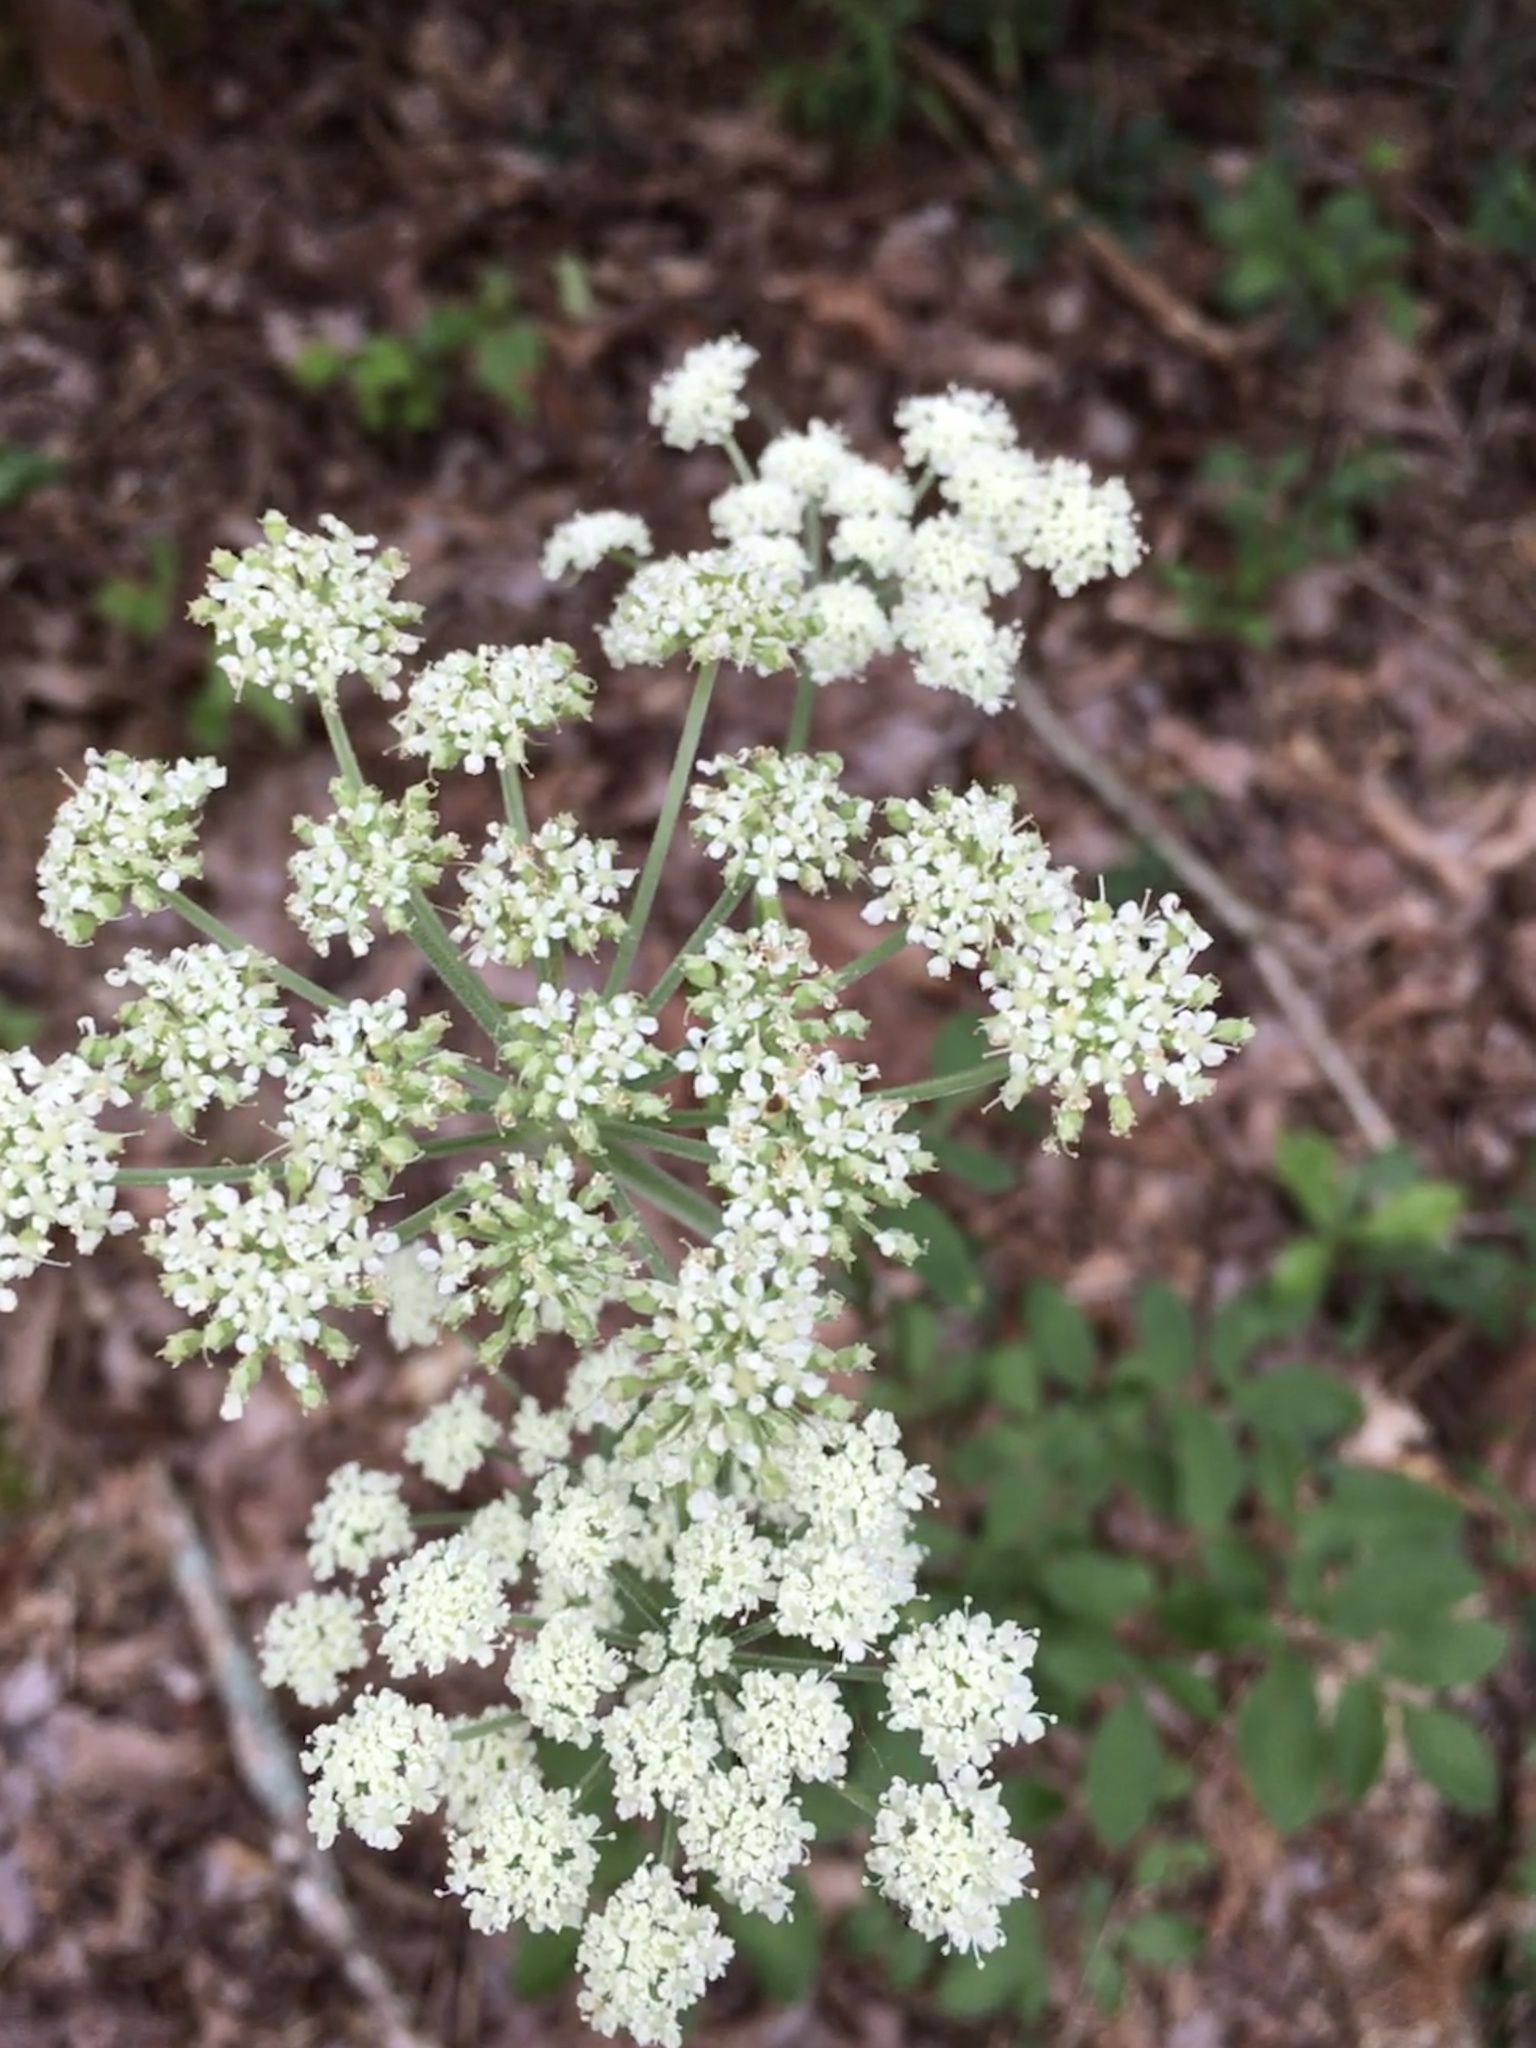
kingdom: Plantae
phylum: Tracheophyta
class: Magnoliopsida
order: Apiales
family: Apiaceae
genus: Angelica
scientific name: Angelica venenosa
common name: Hairy angelica
